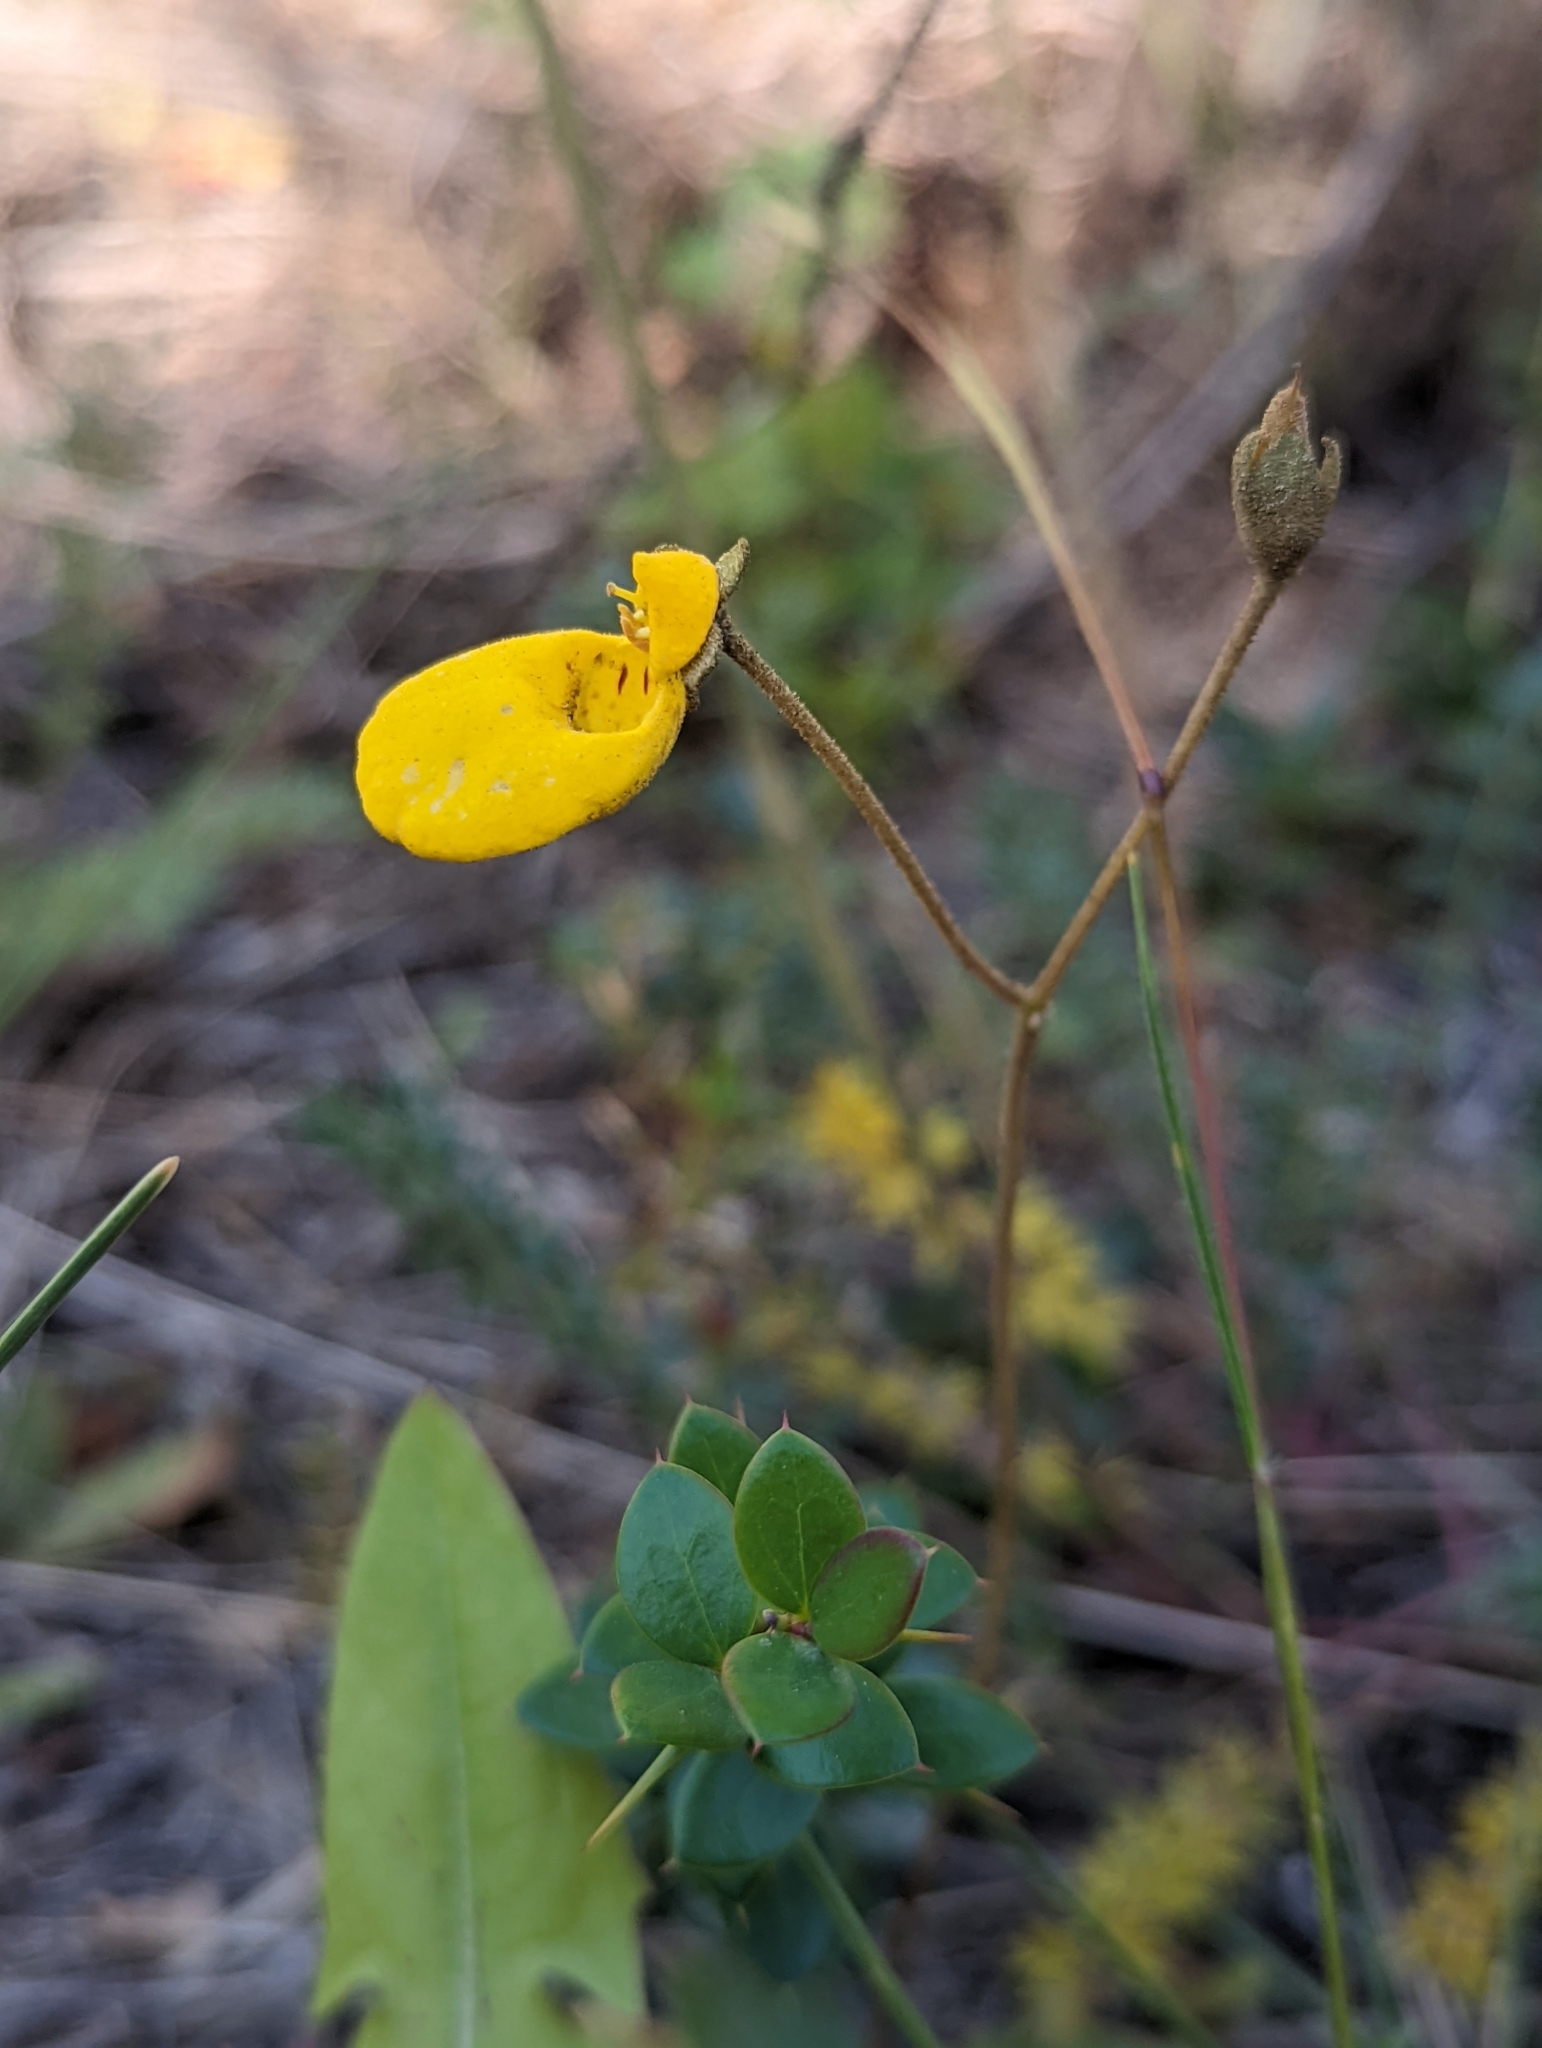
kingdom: Plantae
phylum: Tracheophyta
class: Magnoliopsida
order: Lamiales
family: Calceolariaceae
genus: Calceolaria
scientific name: Calceolaria biflora
